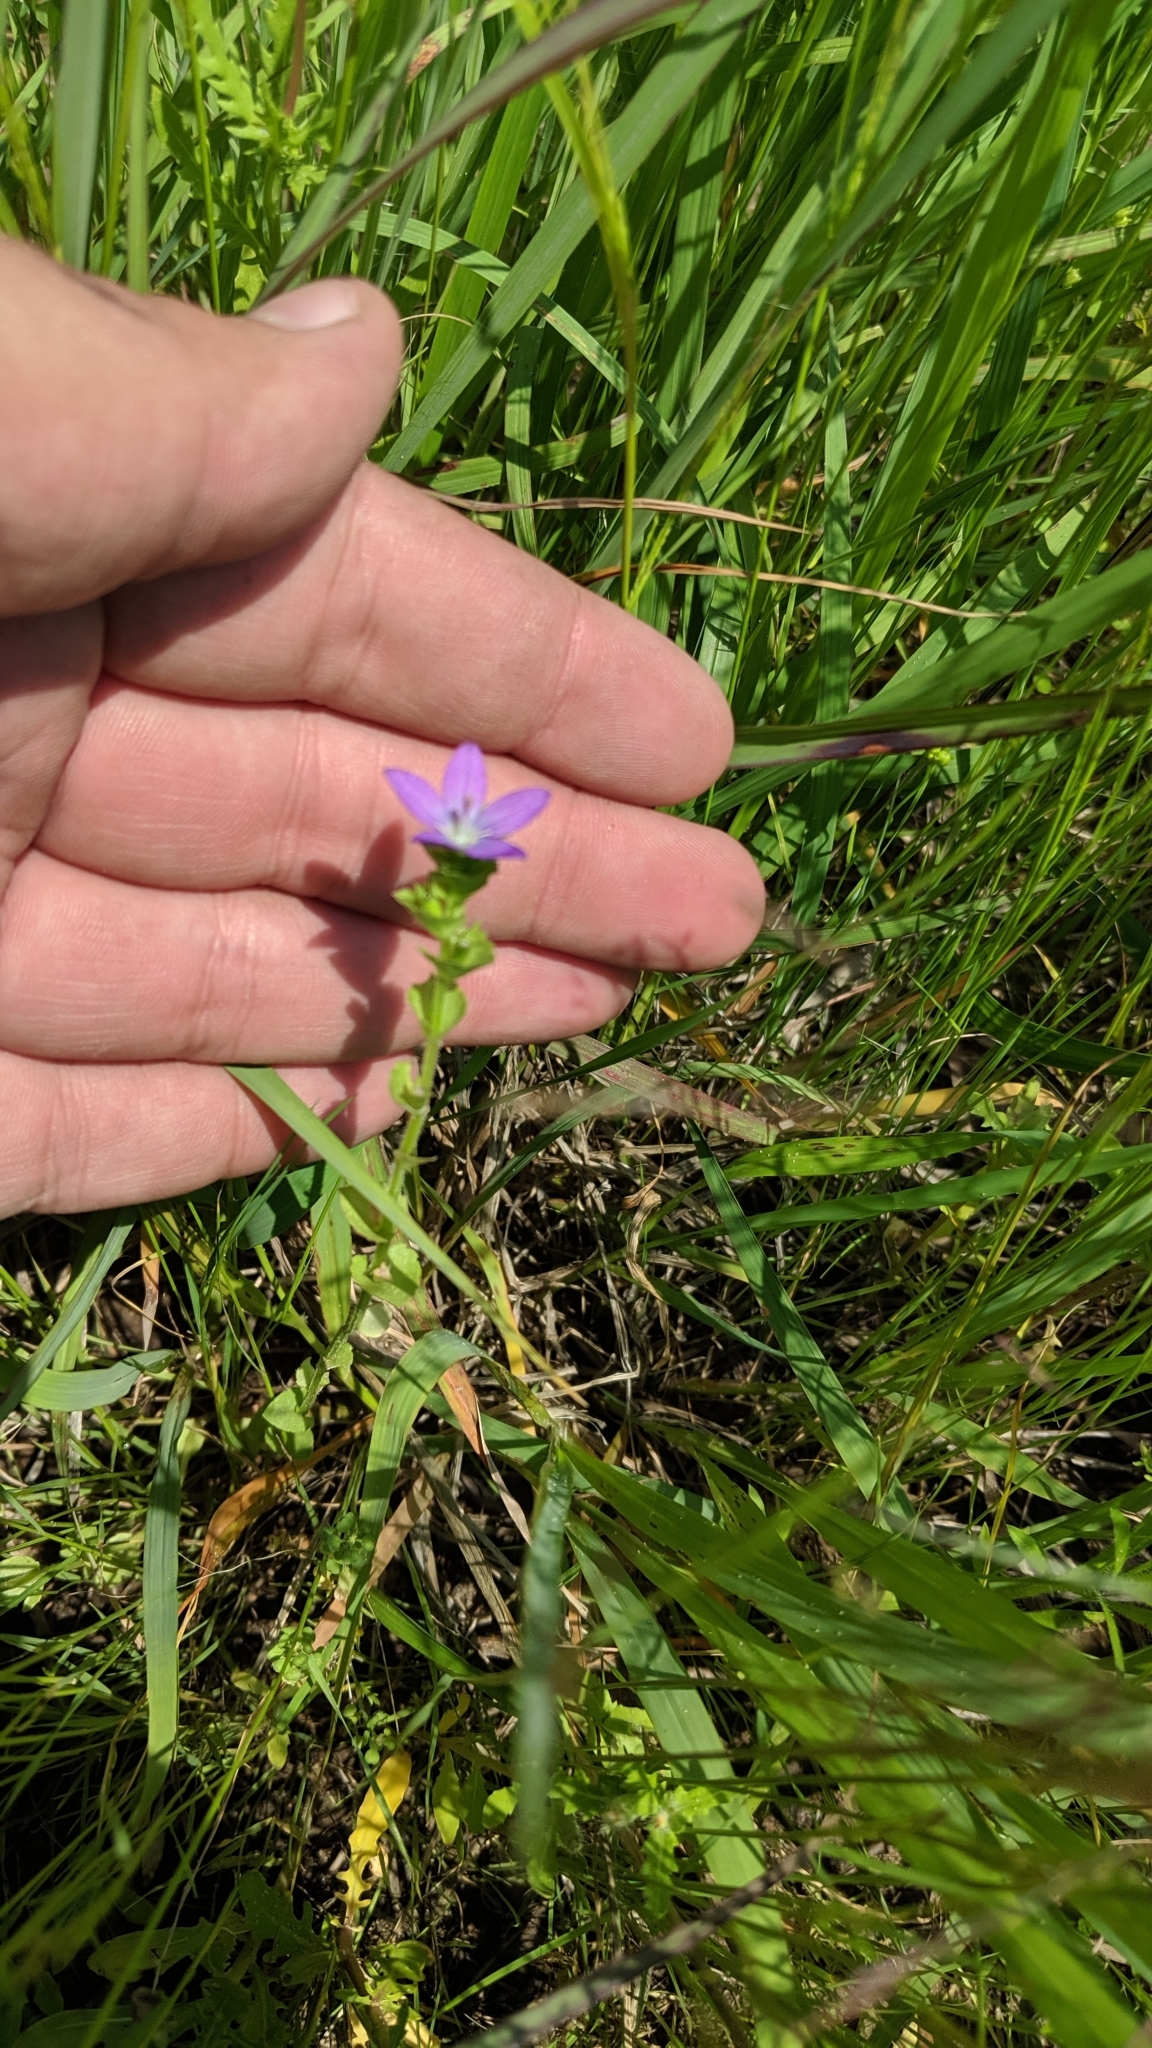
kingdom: Plantae
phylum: Tracheophyta
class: Magnoliopsida
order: Asterales
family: Campanulaceae
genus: Triodanis
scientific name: Triodanis perfoliata
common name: Clasping venus' looking-glass
